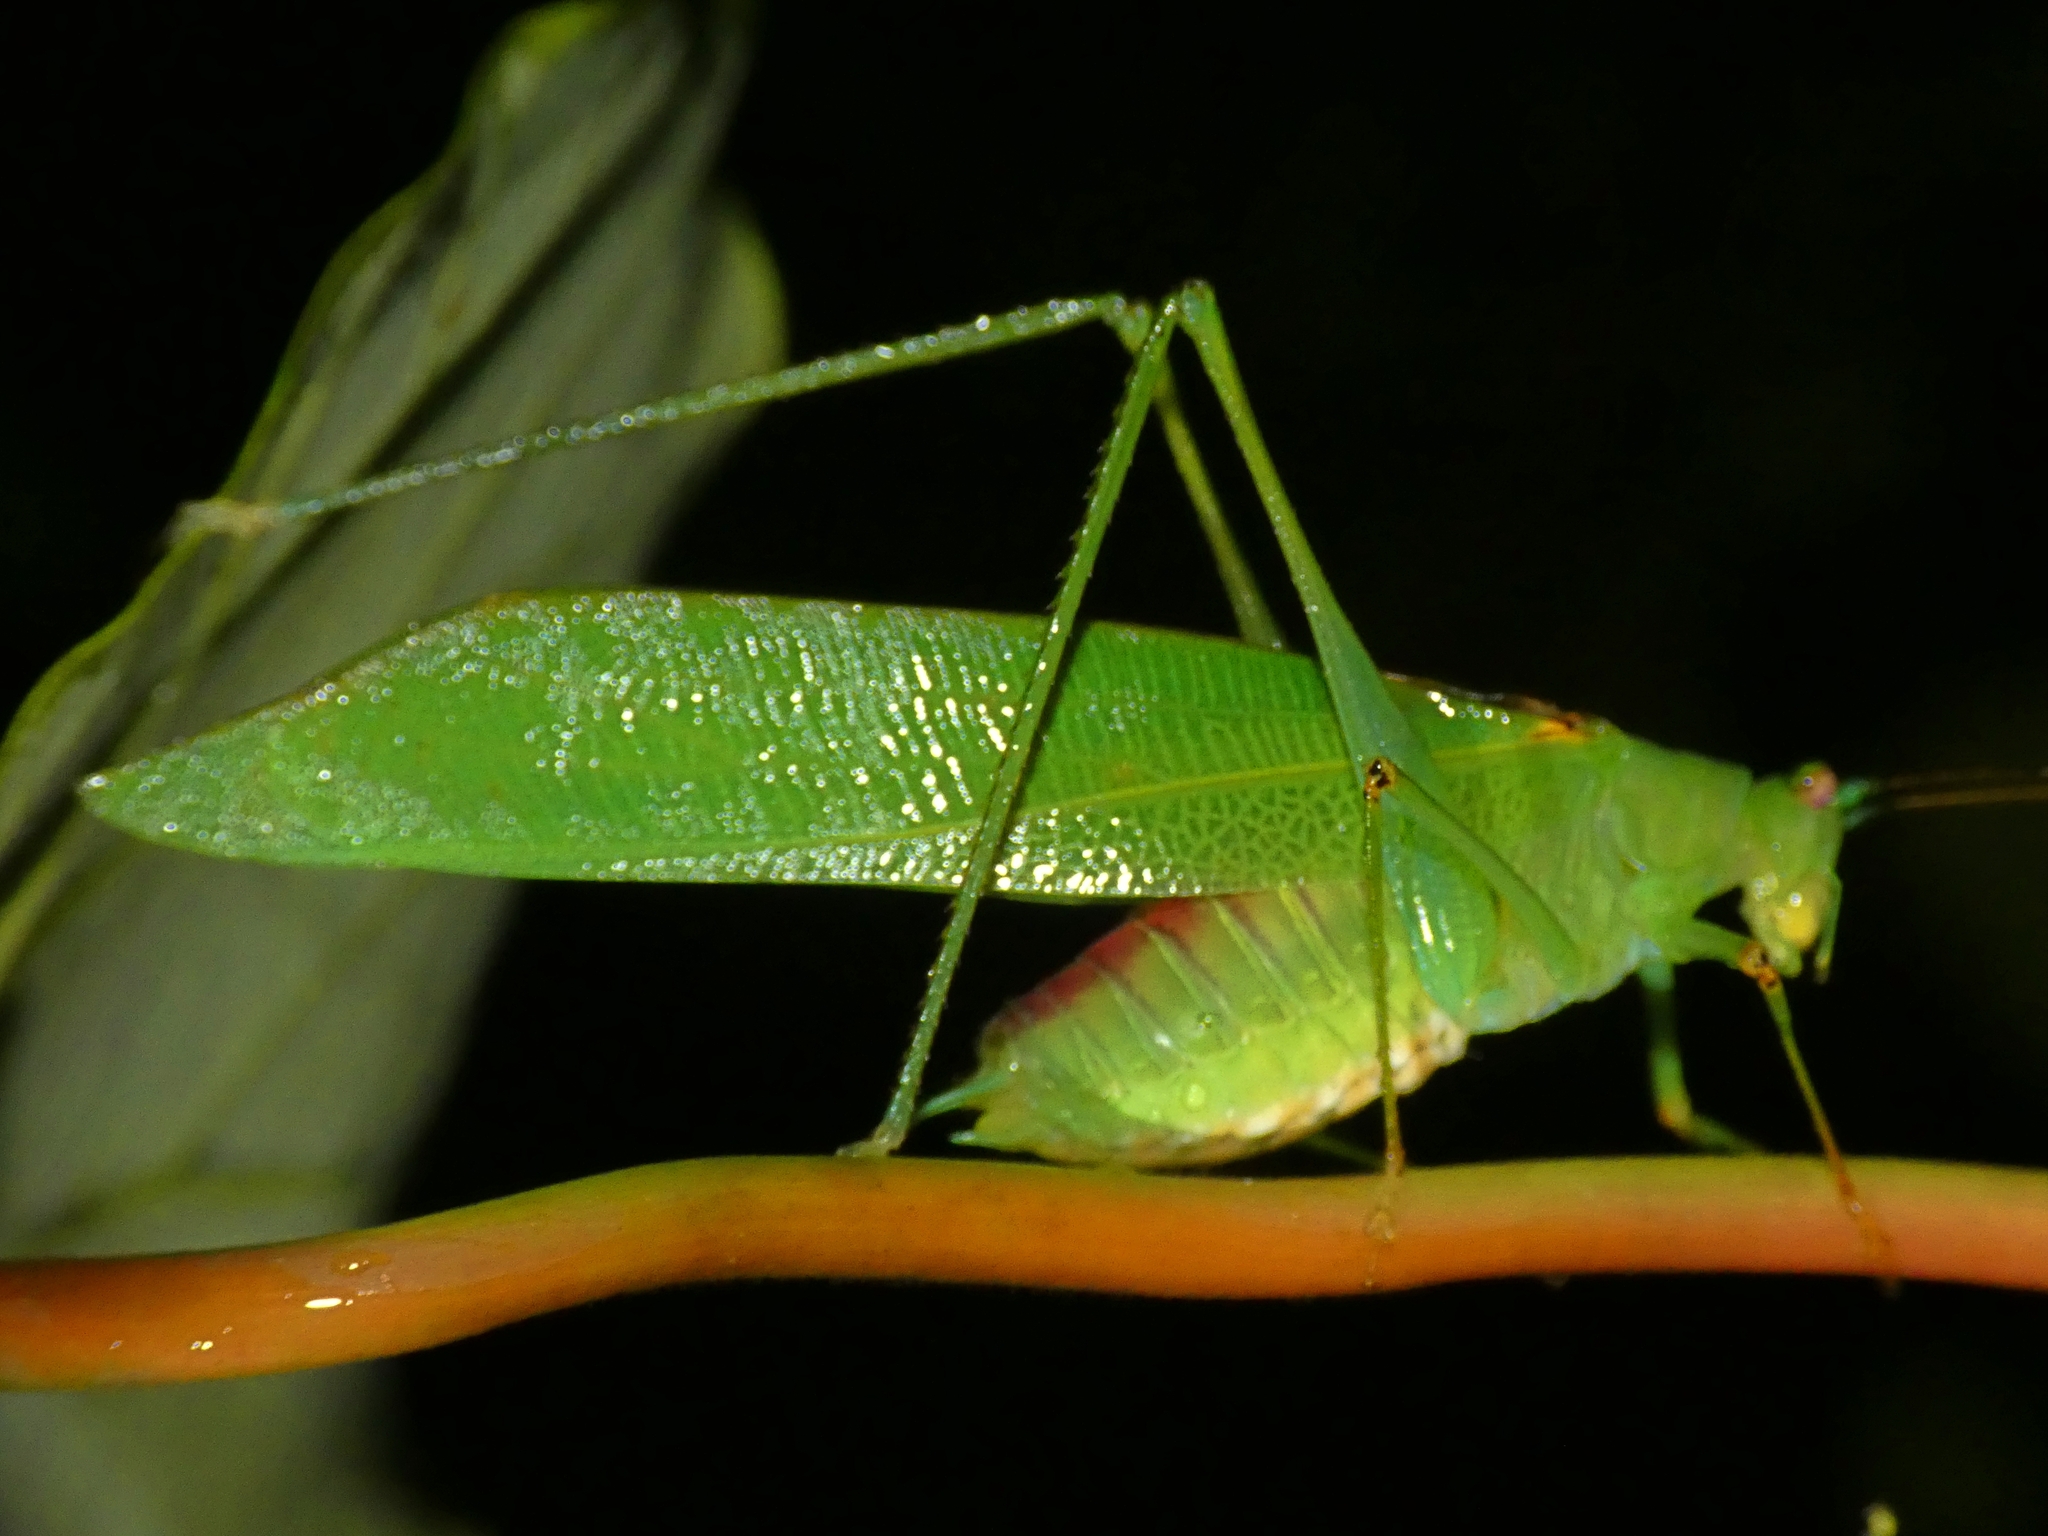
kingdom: Animalia
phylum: Arthropoda
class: Insecta
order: Orthoptera
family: Tettigoniidae
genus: Leucopodoptera
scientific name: Leucopodoptera eumundii
